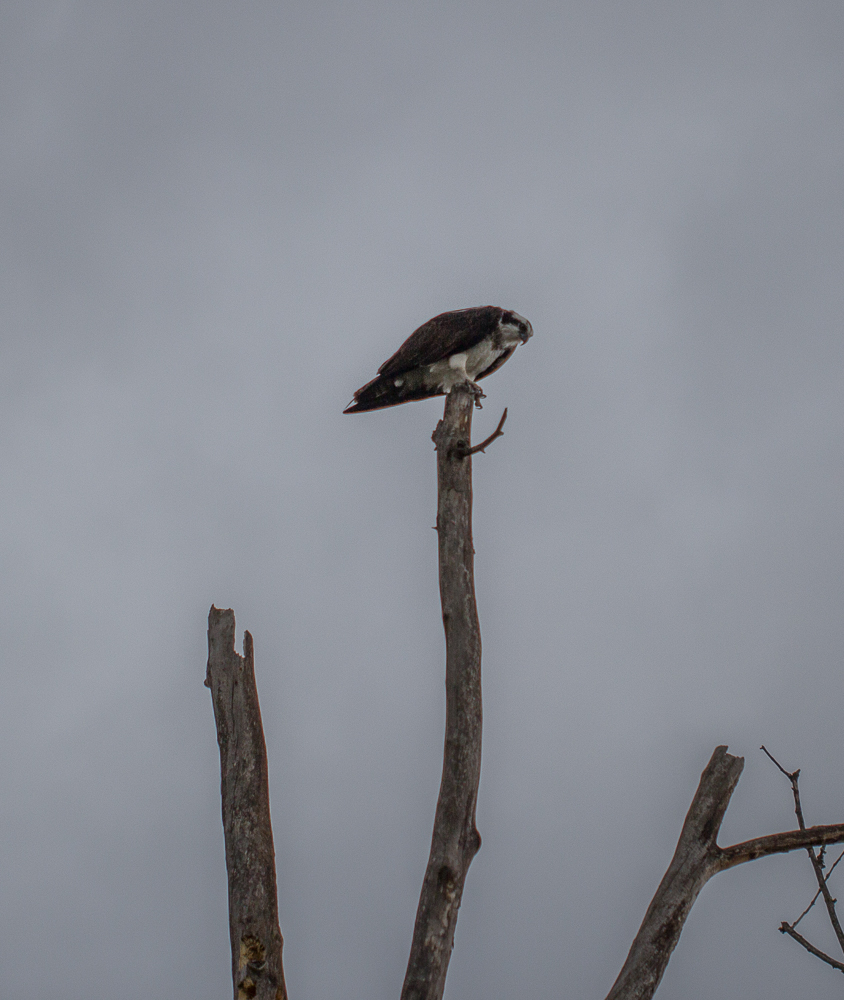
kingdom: Animalia
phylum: Chordata
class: Aves
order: Accipitriformes
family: Pandionidae
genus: Pandion
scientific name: Pandion haliaetus
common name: Osprey
